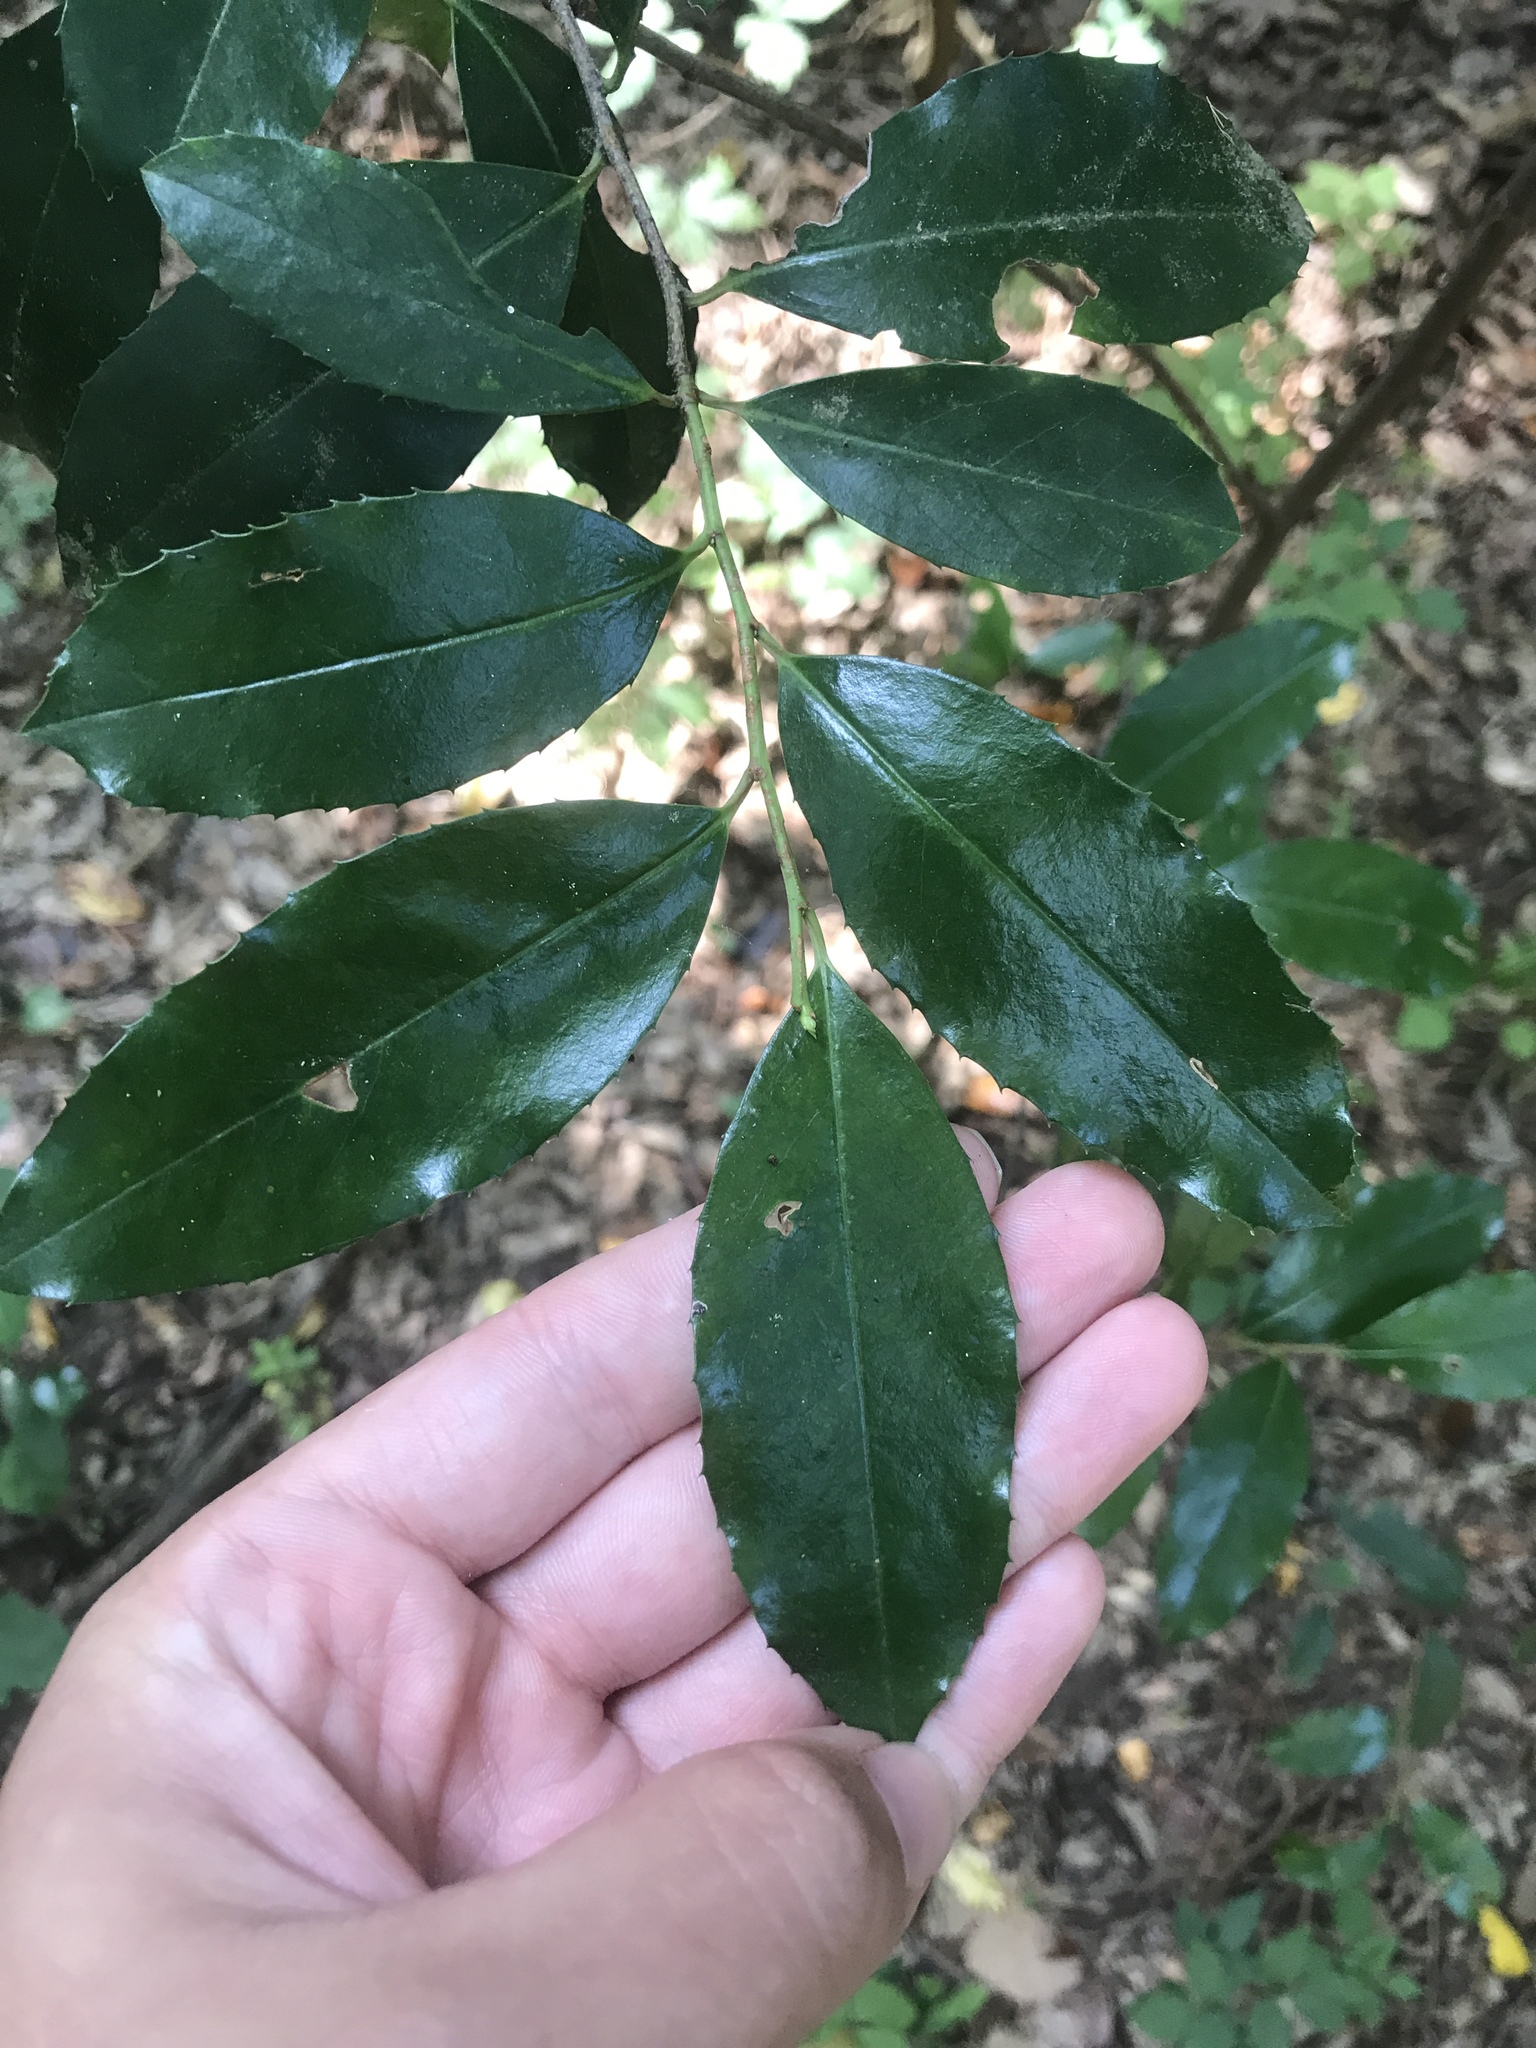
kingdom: Plantae
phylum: Tracheophyta
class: Magnoliopsida
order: Rosales
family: Rosaceae
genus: Prunus
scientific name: Prunus caroliniana
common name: Carolina laurel cherry
